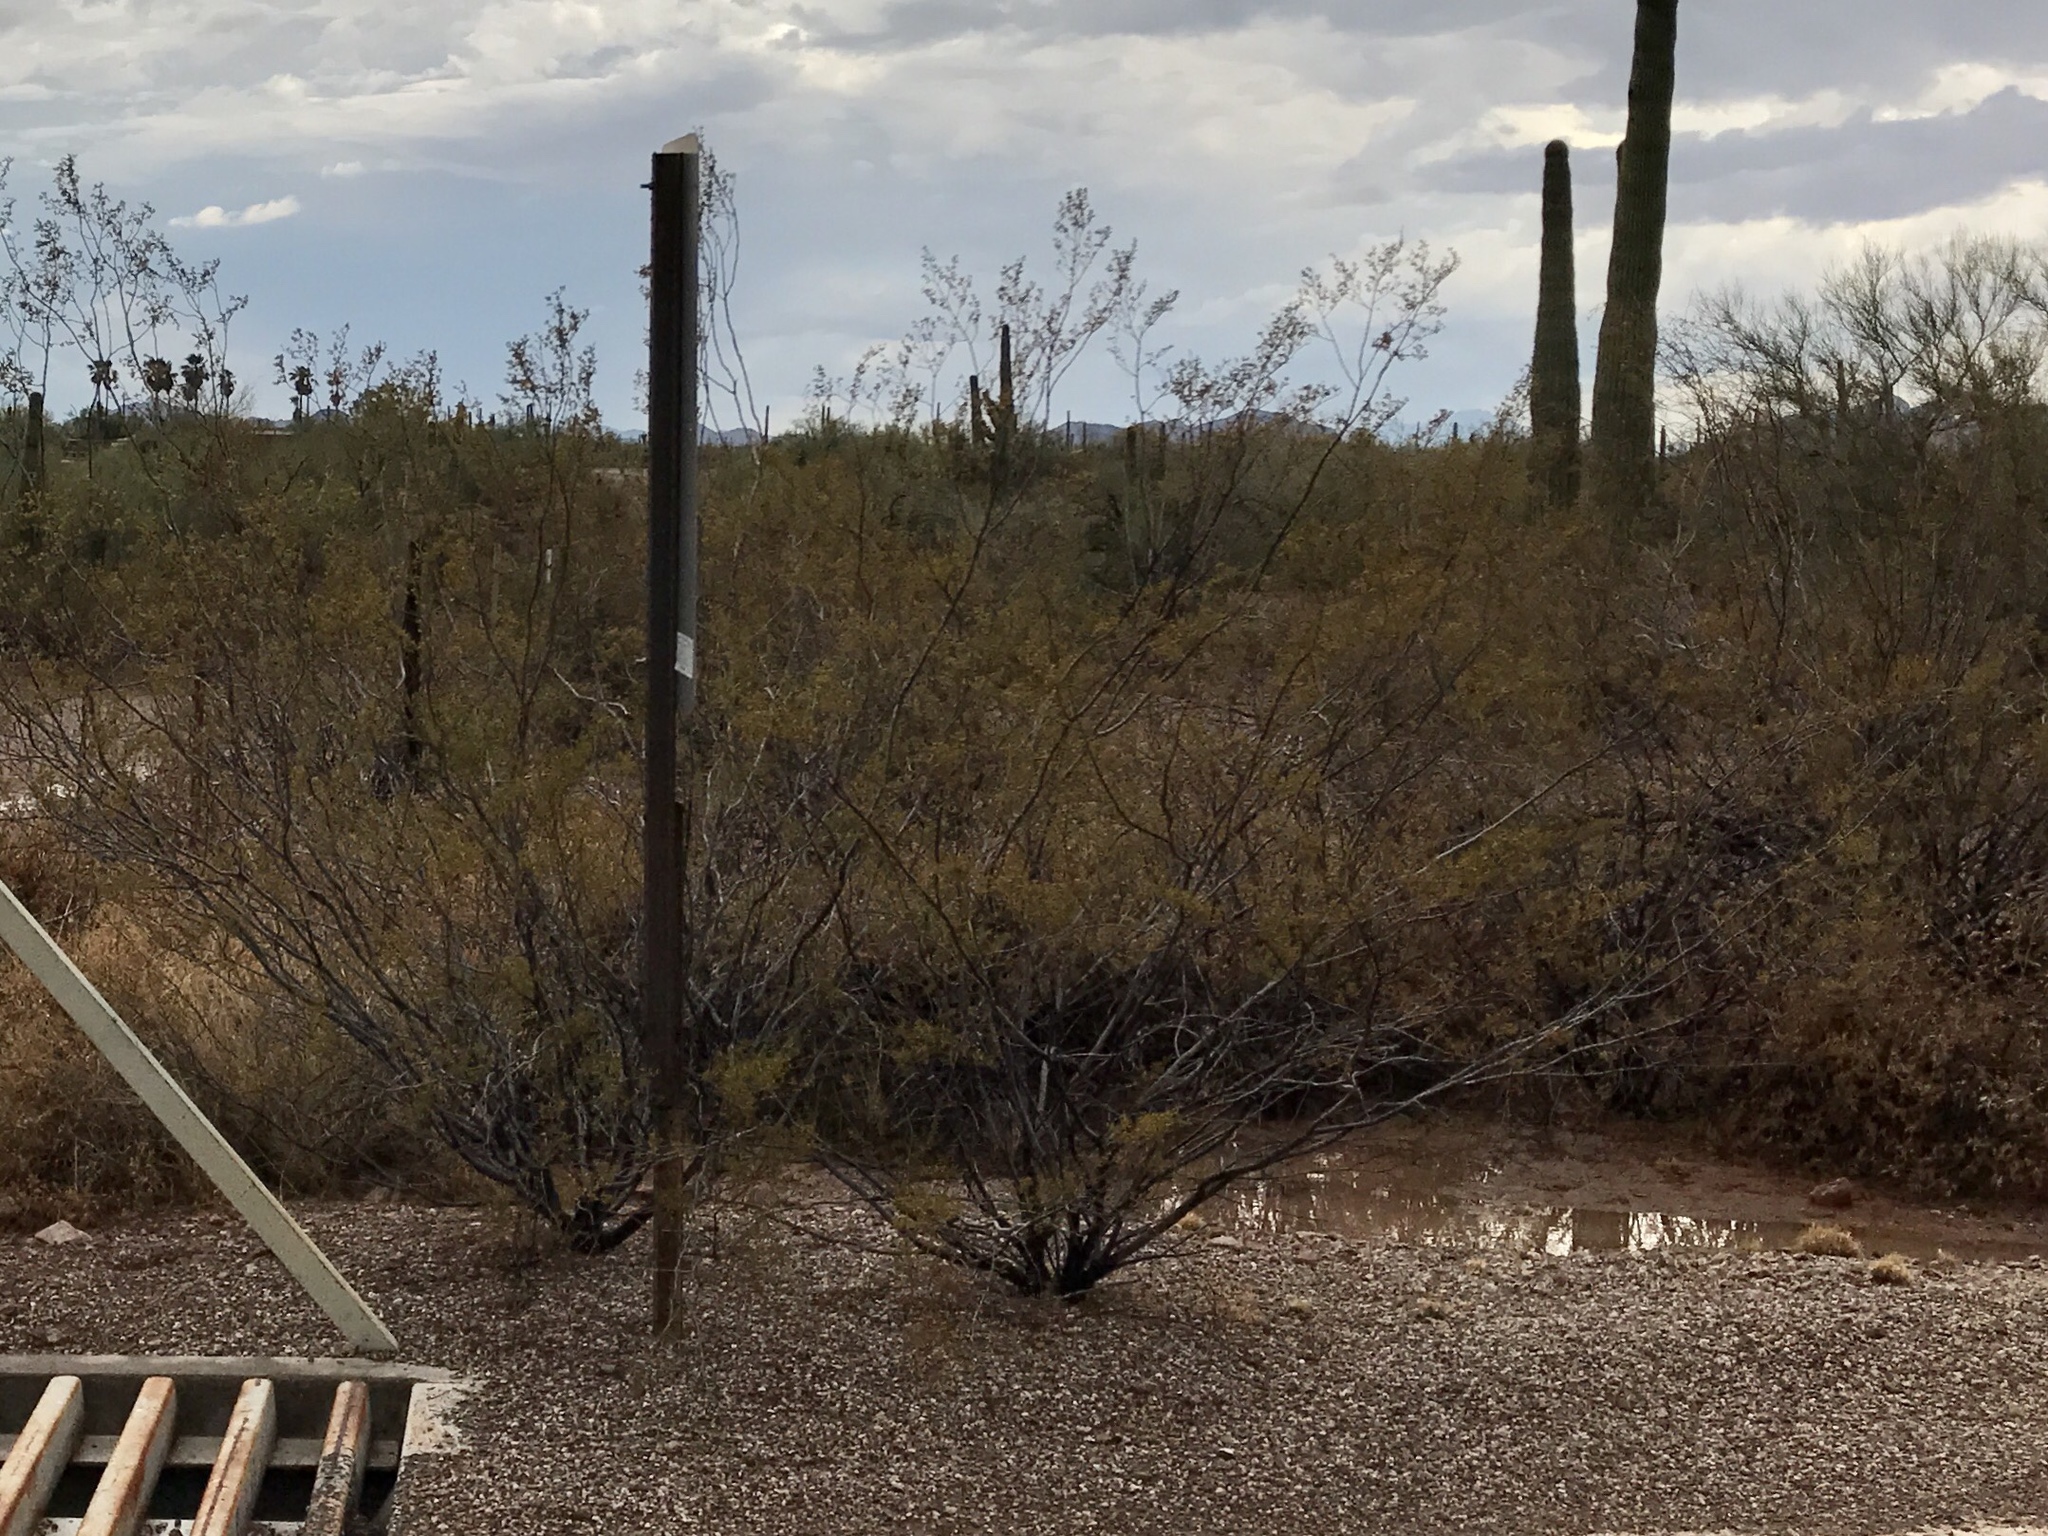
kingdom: Plantae
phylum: Tracheophyta
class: Magnoliopsida
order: Zygophyllales
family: Zygophyllaceae
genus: Larrea
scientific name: Larrea tridentata
